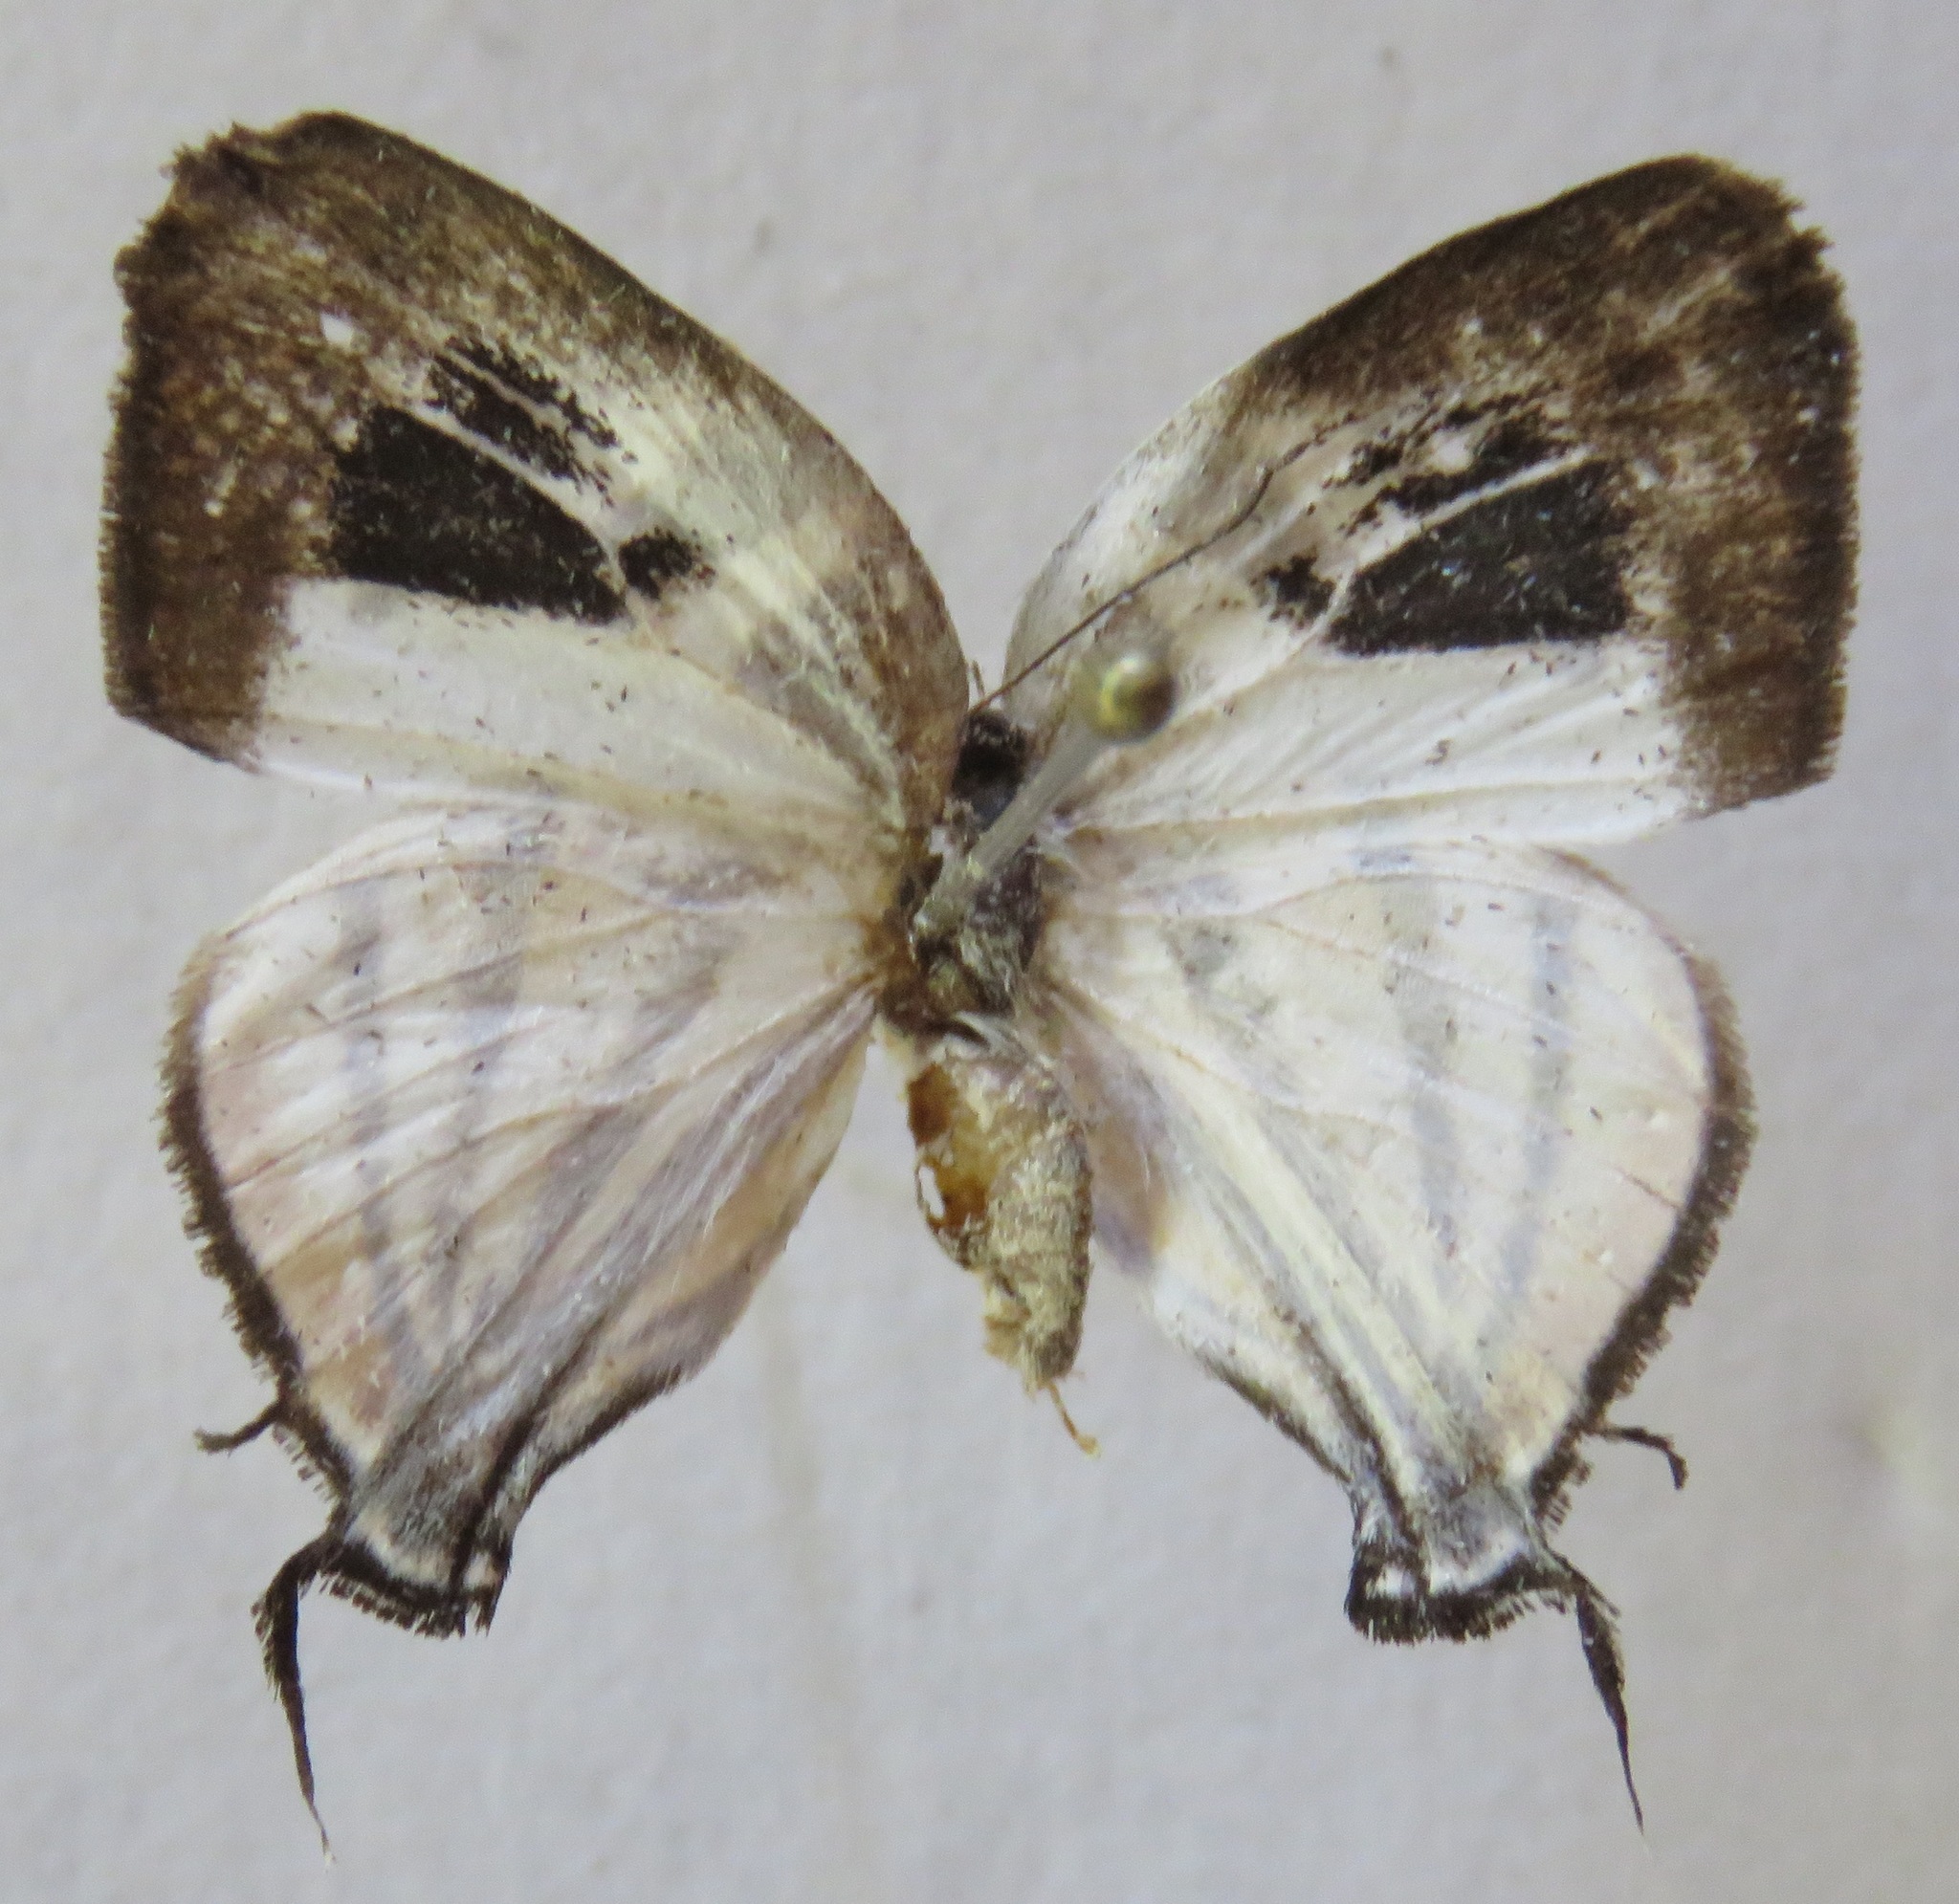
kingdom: Animalia
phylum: Arthropoda
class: Insecta
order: Lepidoptera
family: Lycaenidae
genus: Arawacus
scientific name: Arawacus togarna
